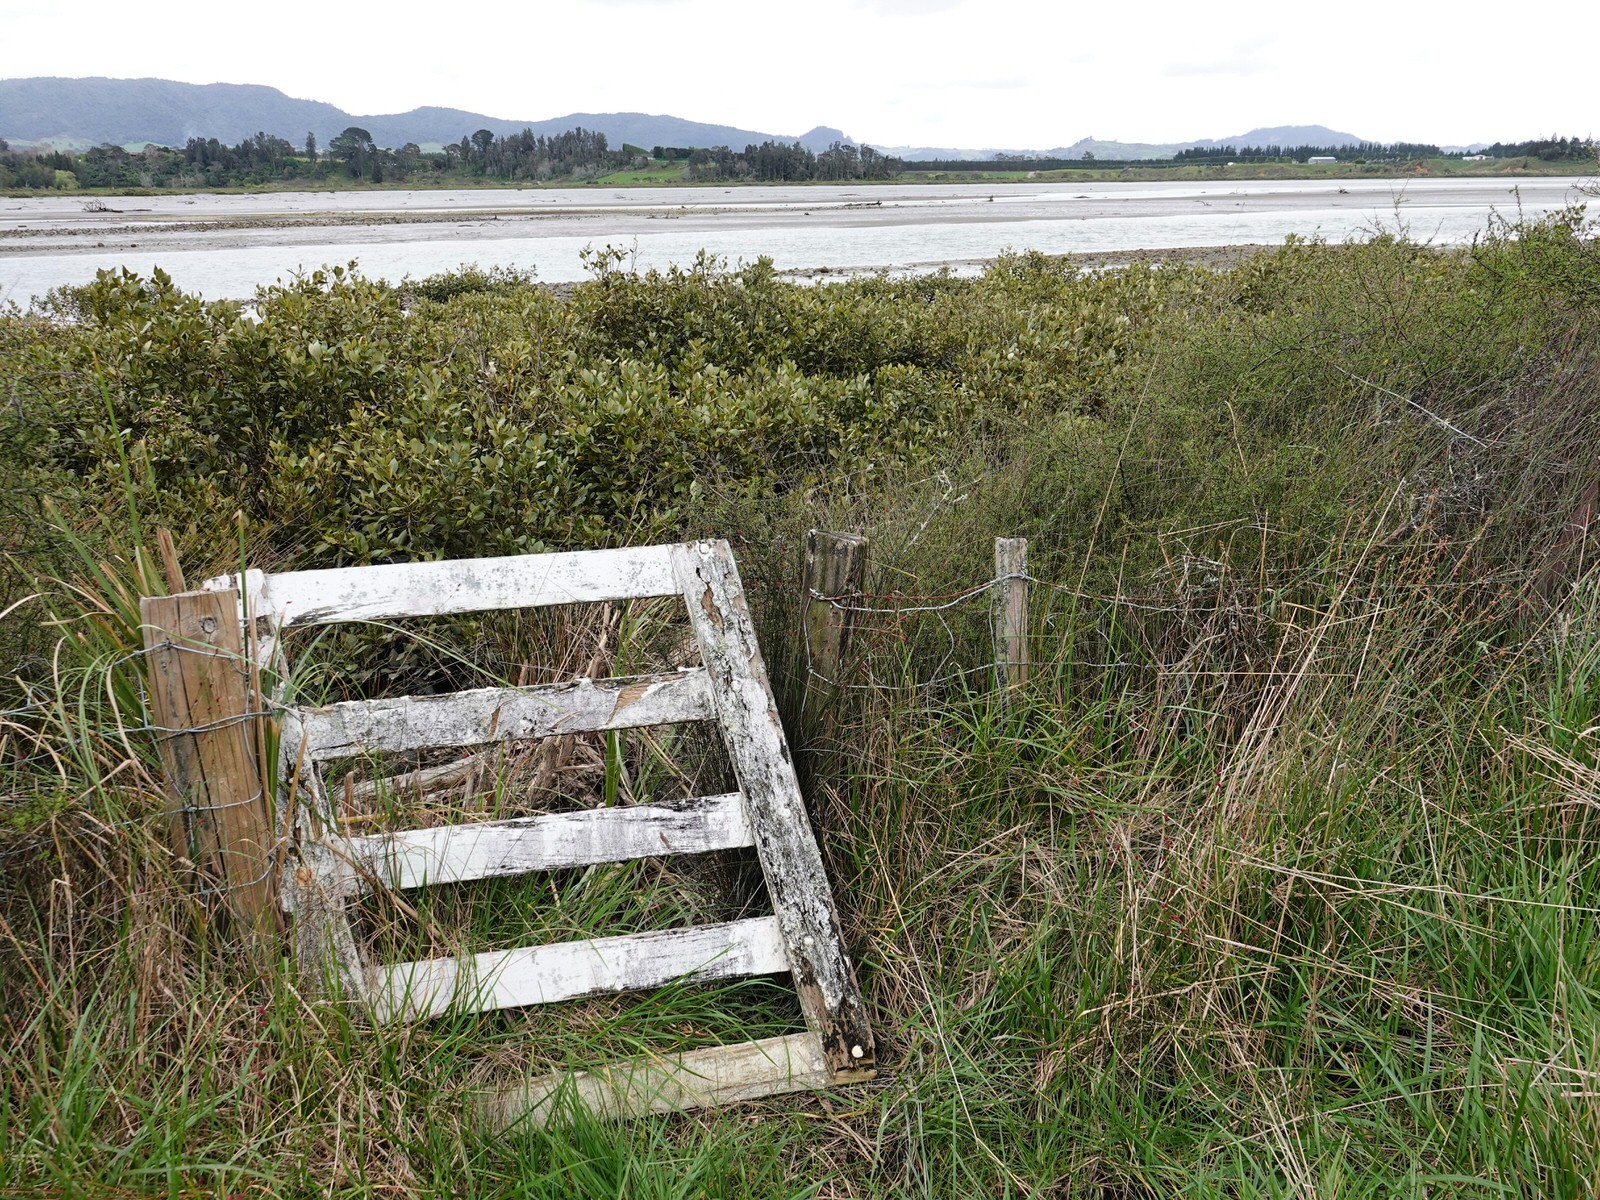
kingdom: Plantae
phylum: Tracheophyta
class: Liliopsida
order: Poales
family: Restionaceae
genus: Apodasmia
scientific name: Apodasmia similis
